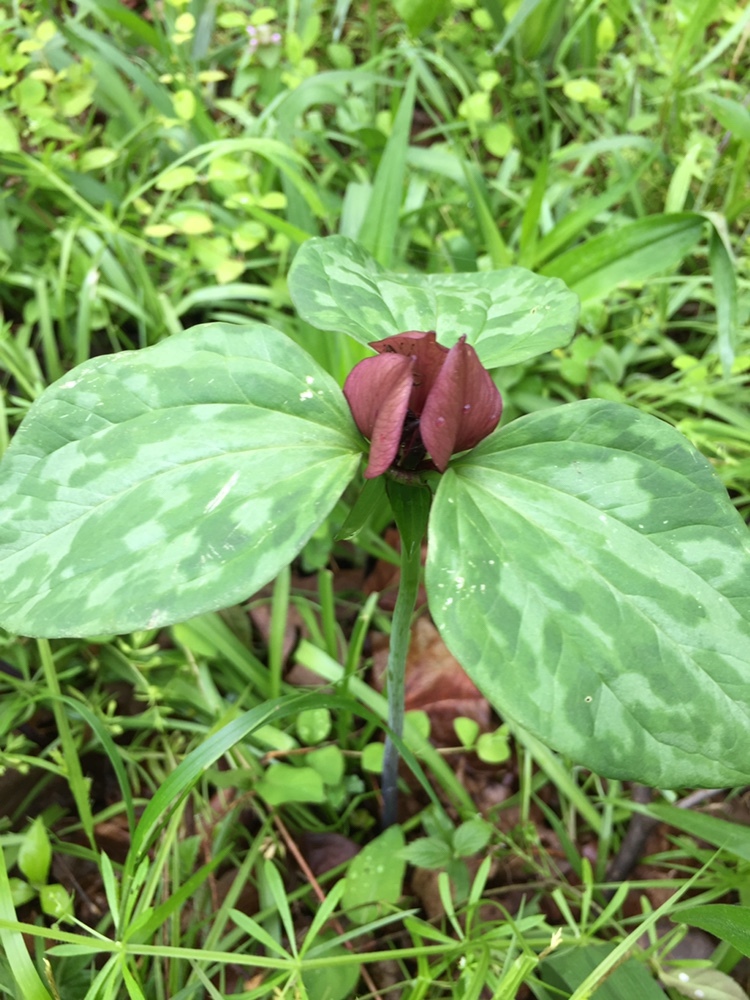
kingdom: Plantae
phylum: Tracheophyta
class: Liliopsida
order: Liliales
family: Melanthiaceae
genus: Trillium
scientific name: Trillium recurvatum
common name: Bloody butcher
